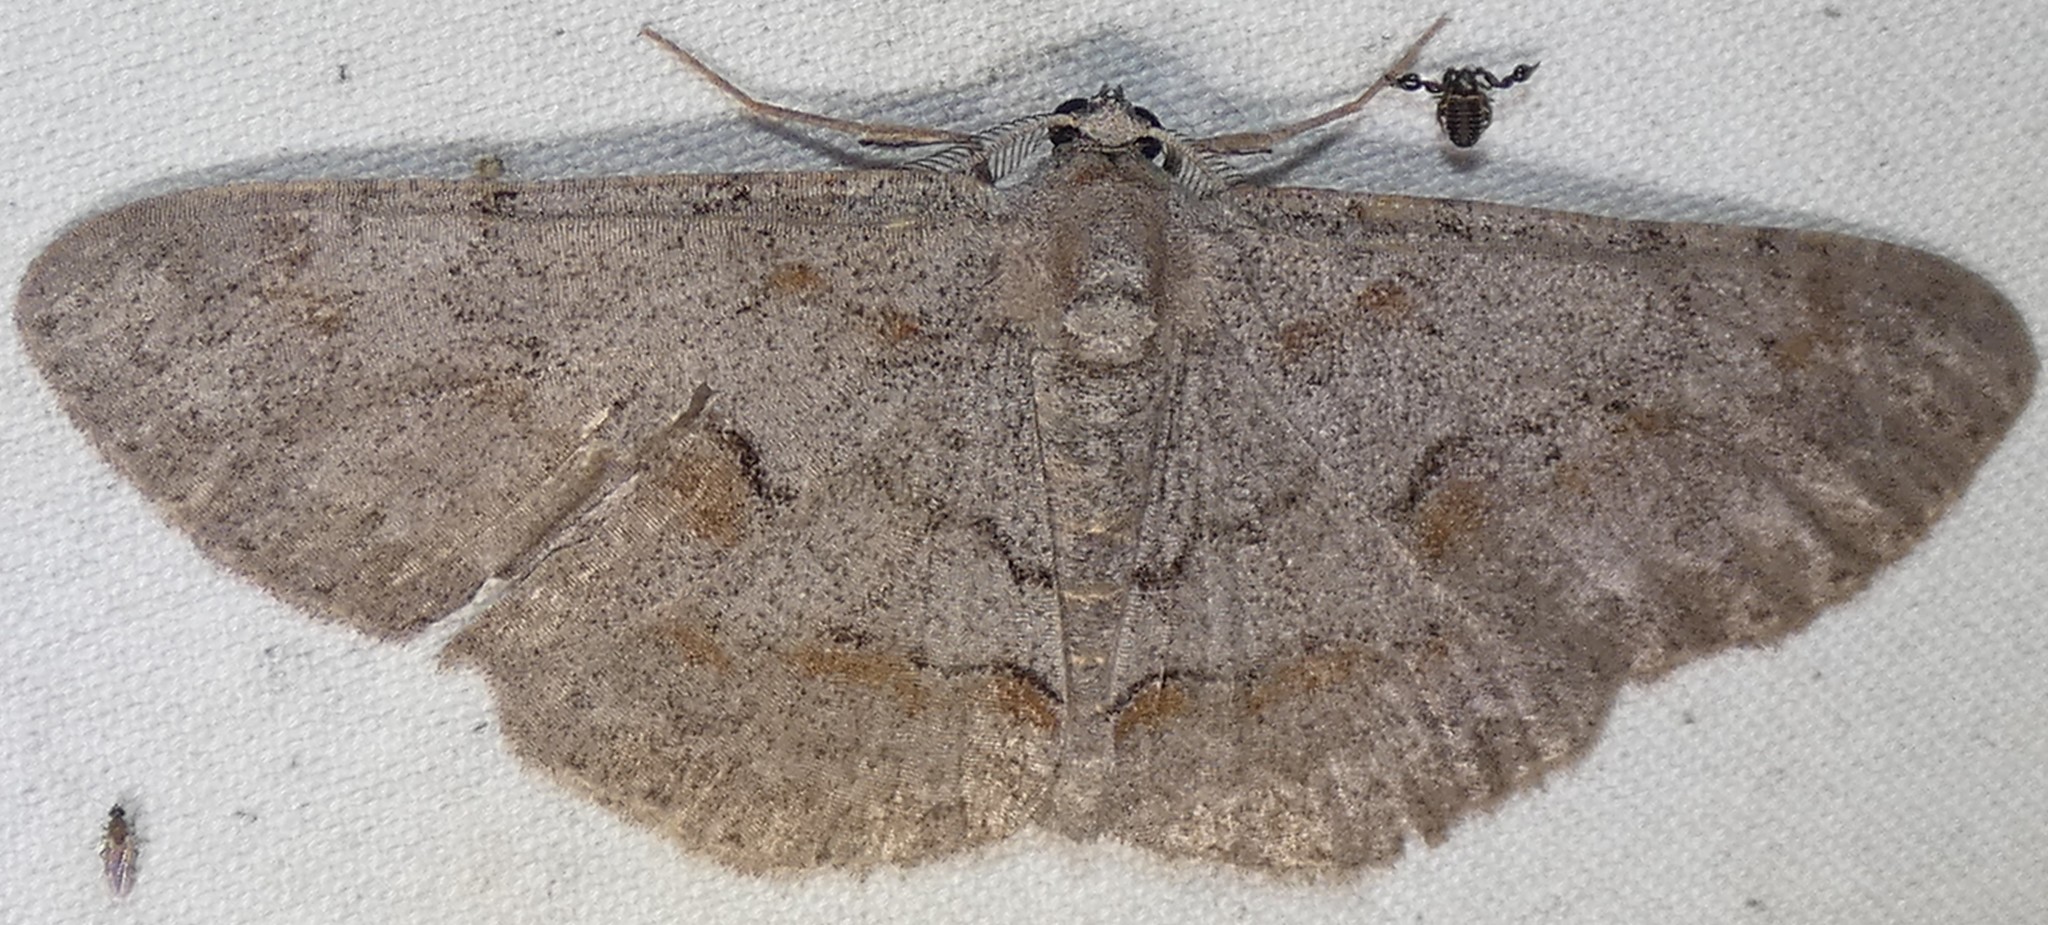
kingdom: Animalia
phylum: Arthropoda
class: Insecta
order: Lepidoptera
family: Geometridae
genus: Iridopsis
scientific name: Iridopsis vellivolata
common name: Large purplish gray
